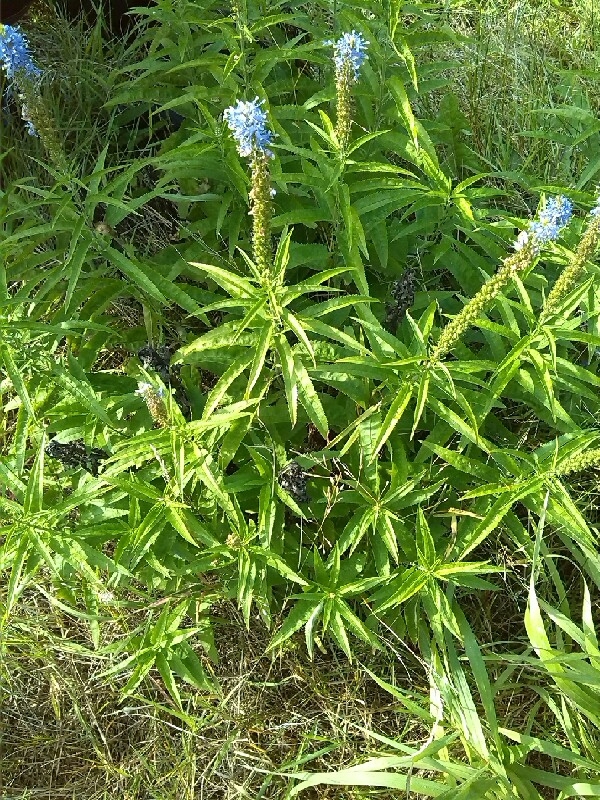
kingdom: Plantae
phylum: Tracheophyta
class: Magnoliopsida
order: Lamiales
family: Plantaginaceae
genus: Veronica
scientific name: Veronica longifolia
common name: Garden speedwell
